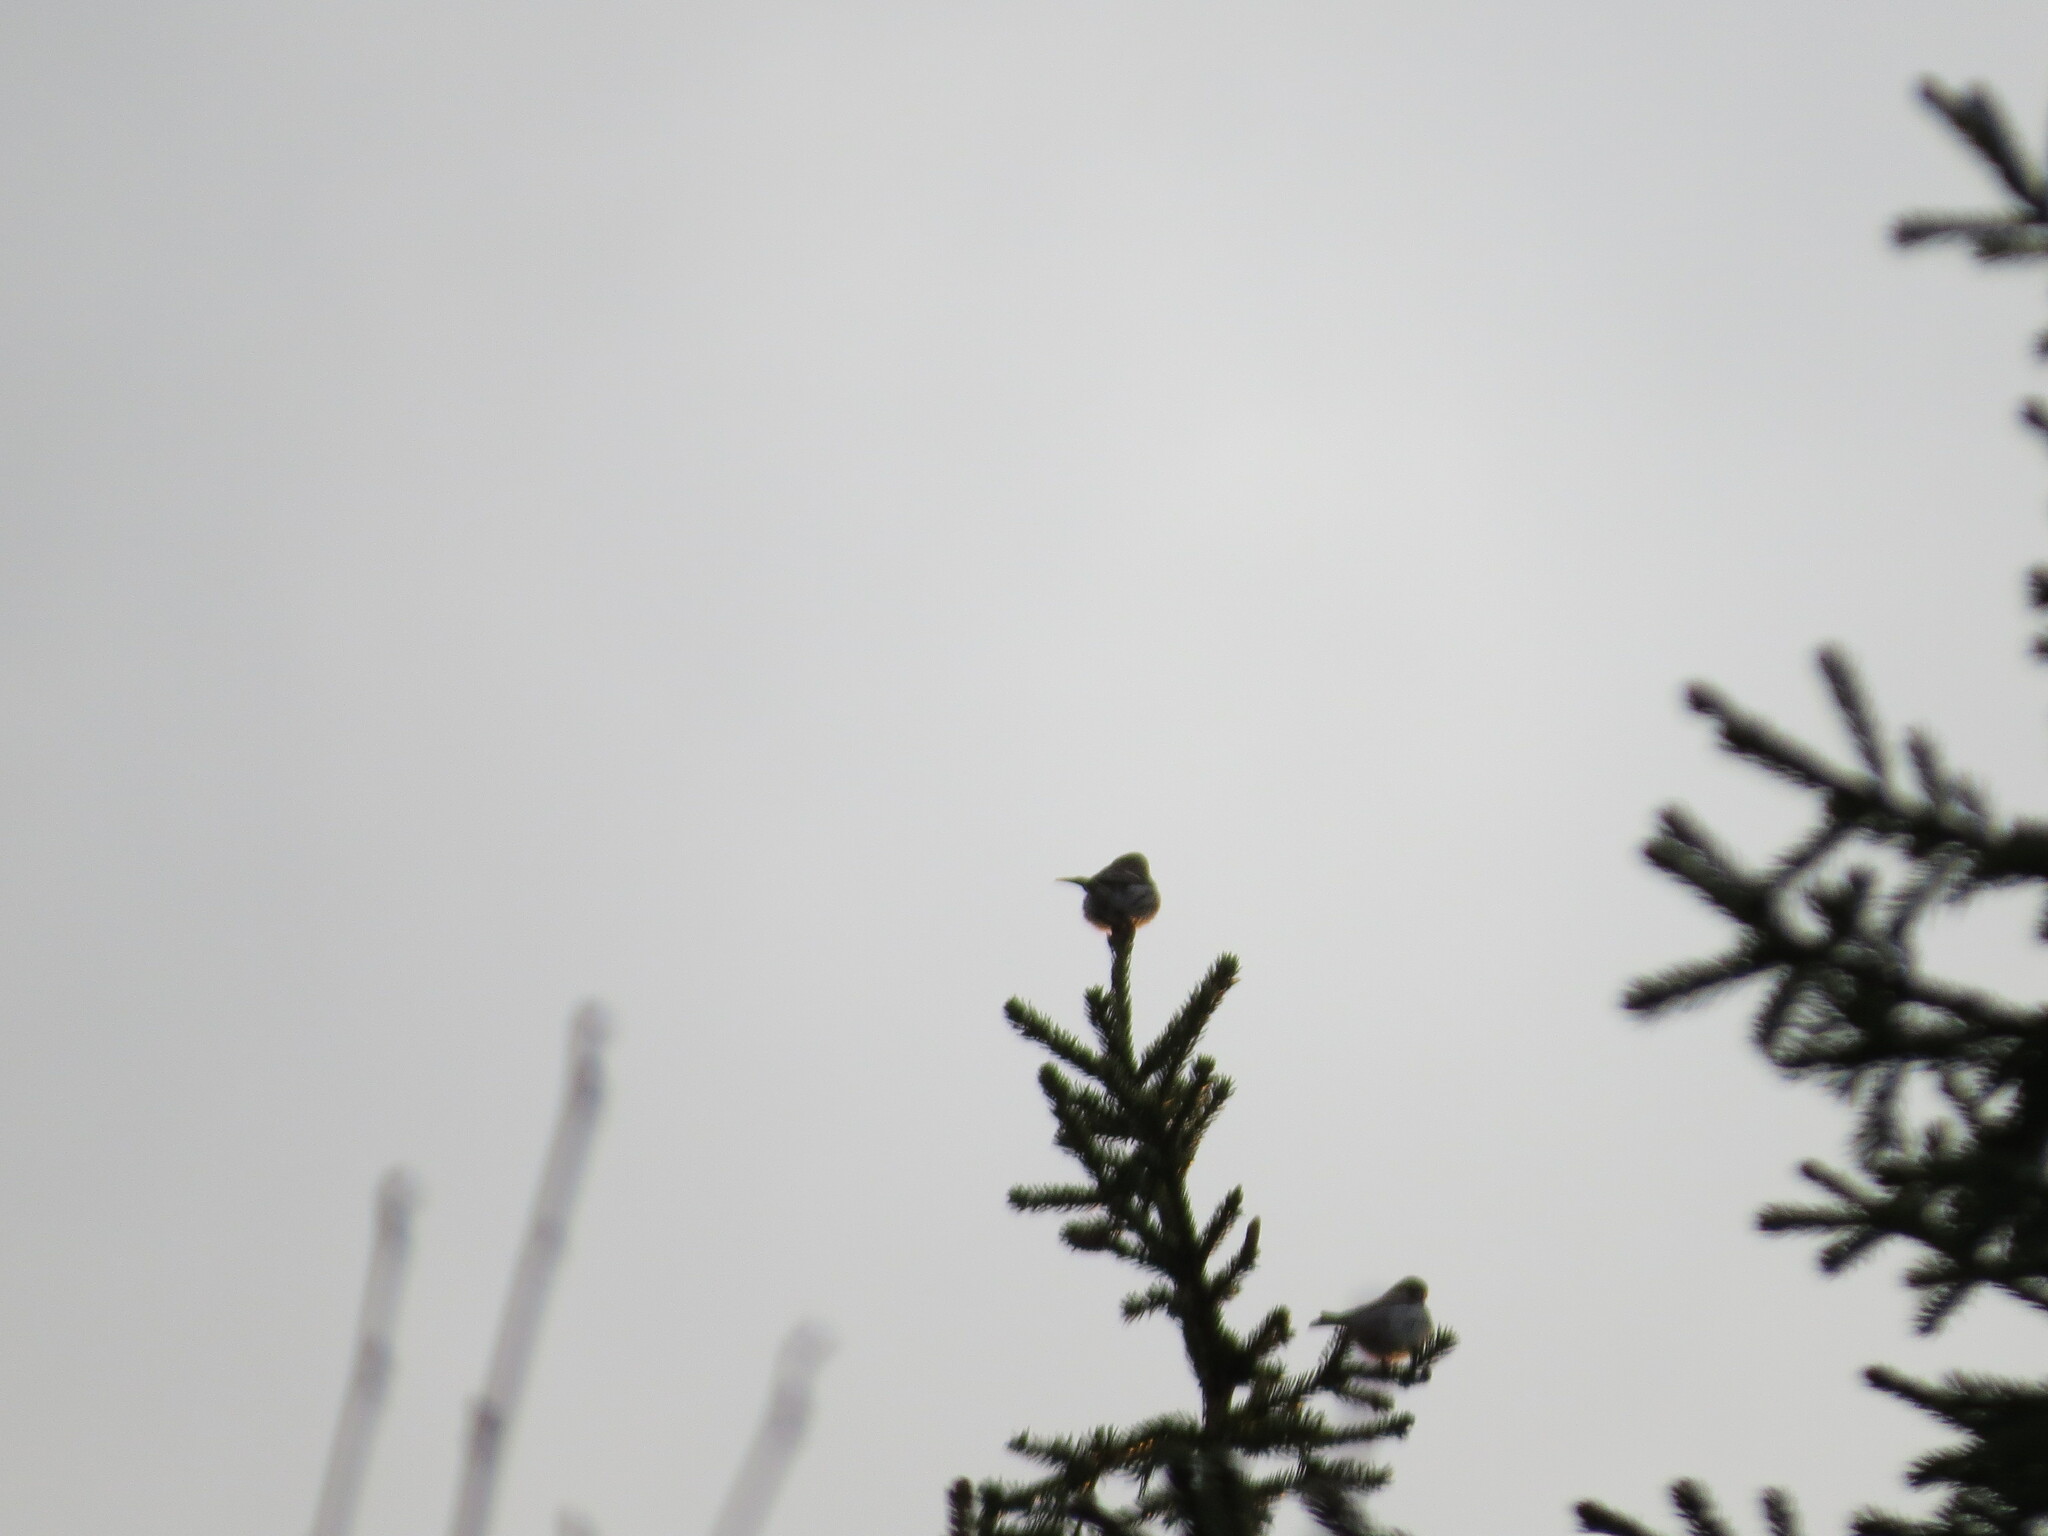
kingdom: Animalia
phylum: Chordata
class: Aves
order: Passeriformes
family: Fringillidae
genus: Acanthis
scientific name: Acanthis flammea
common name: Common redpoll
